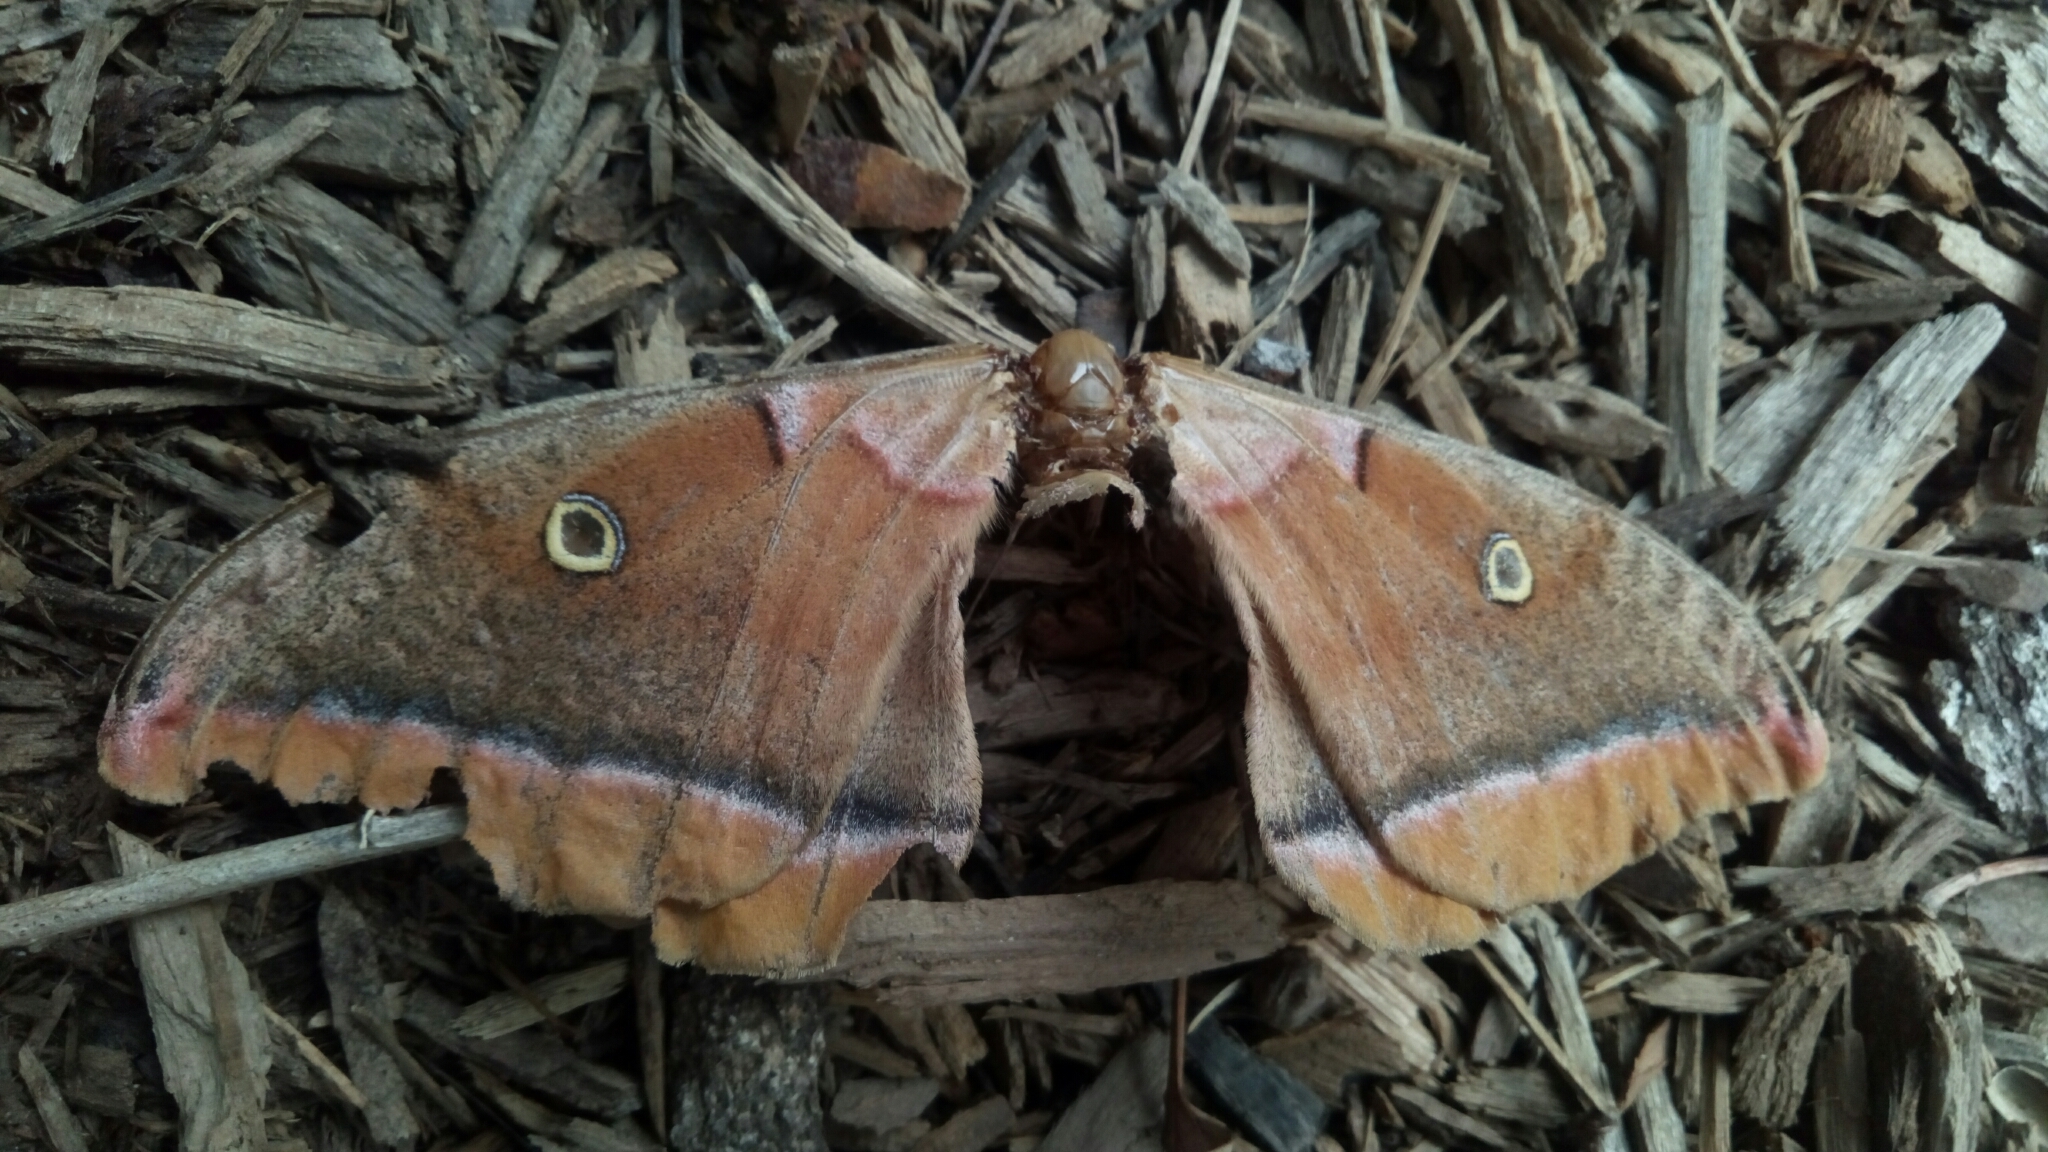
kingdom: Animalia
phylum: Arthropoda
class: Insecta
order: Lepidoptera
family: Saturniidae
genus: Antheraea
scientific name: Antheraea polyphemus
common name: Polyphemus moth
